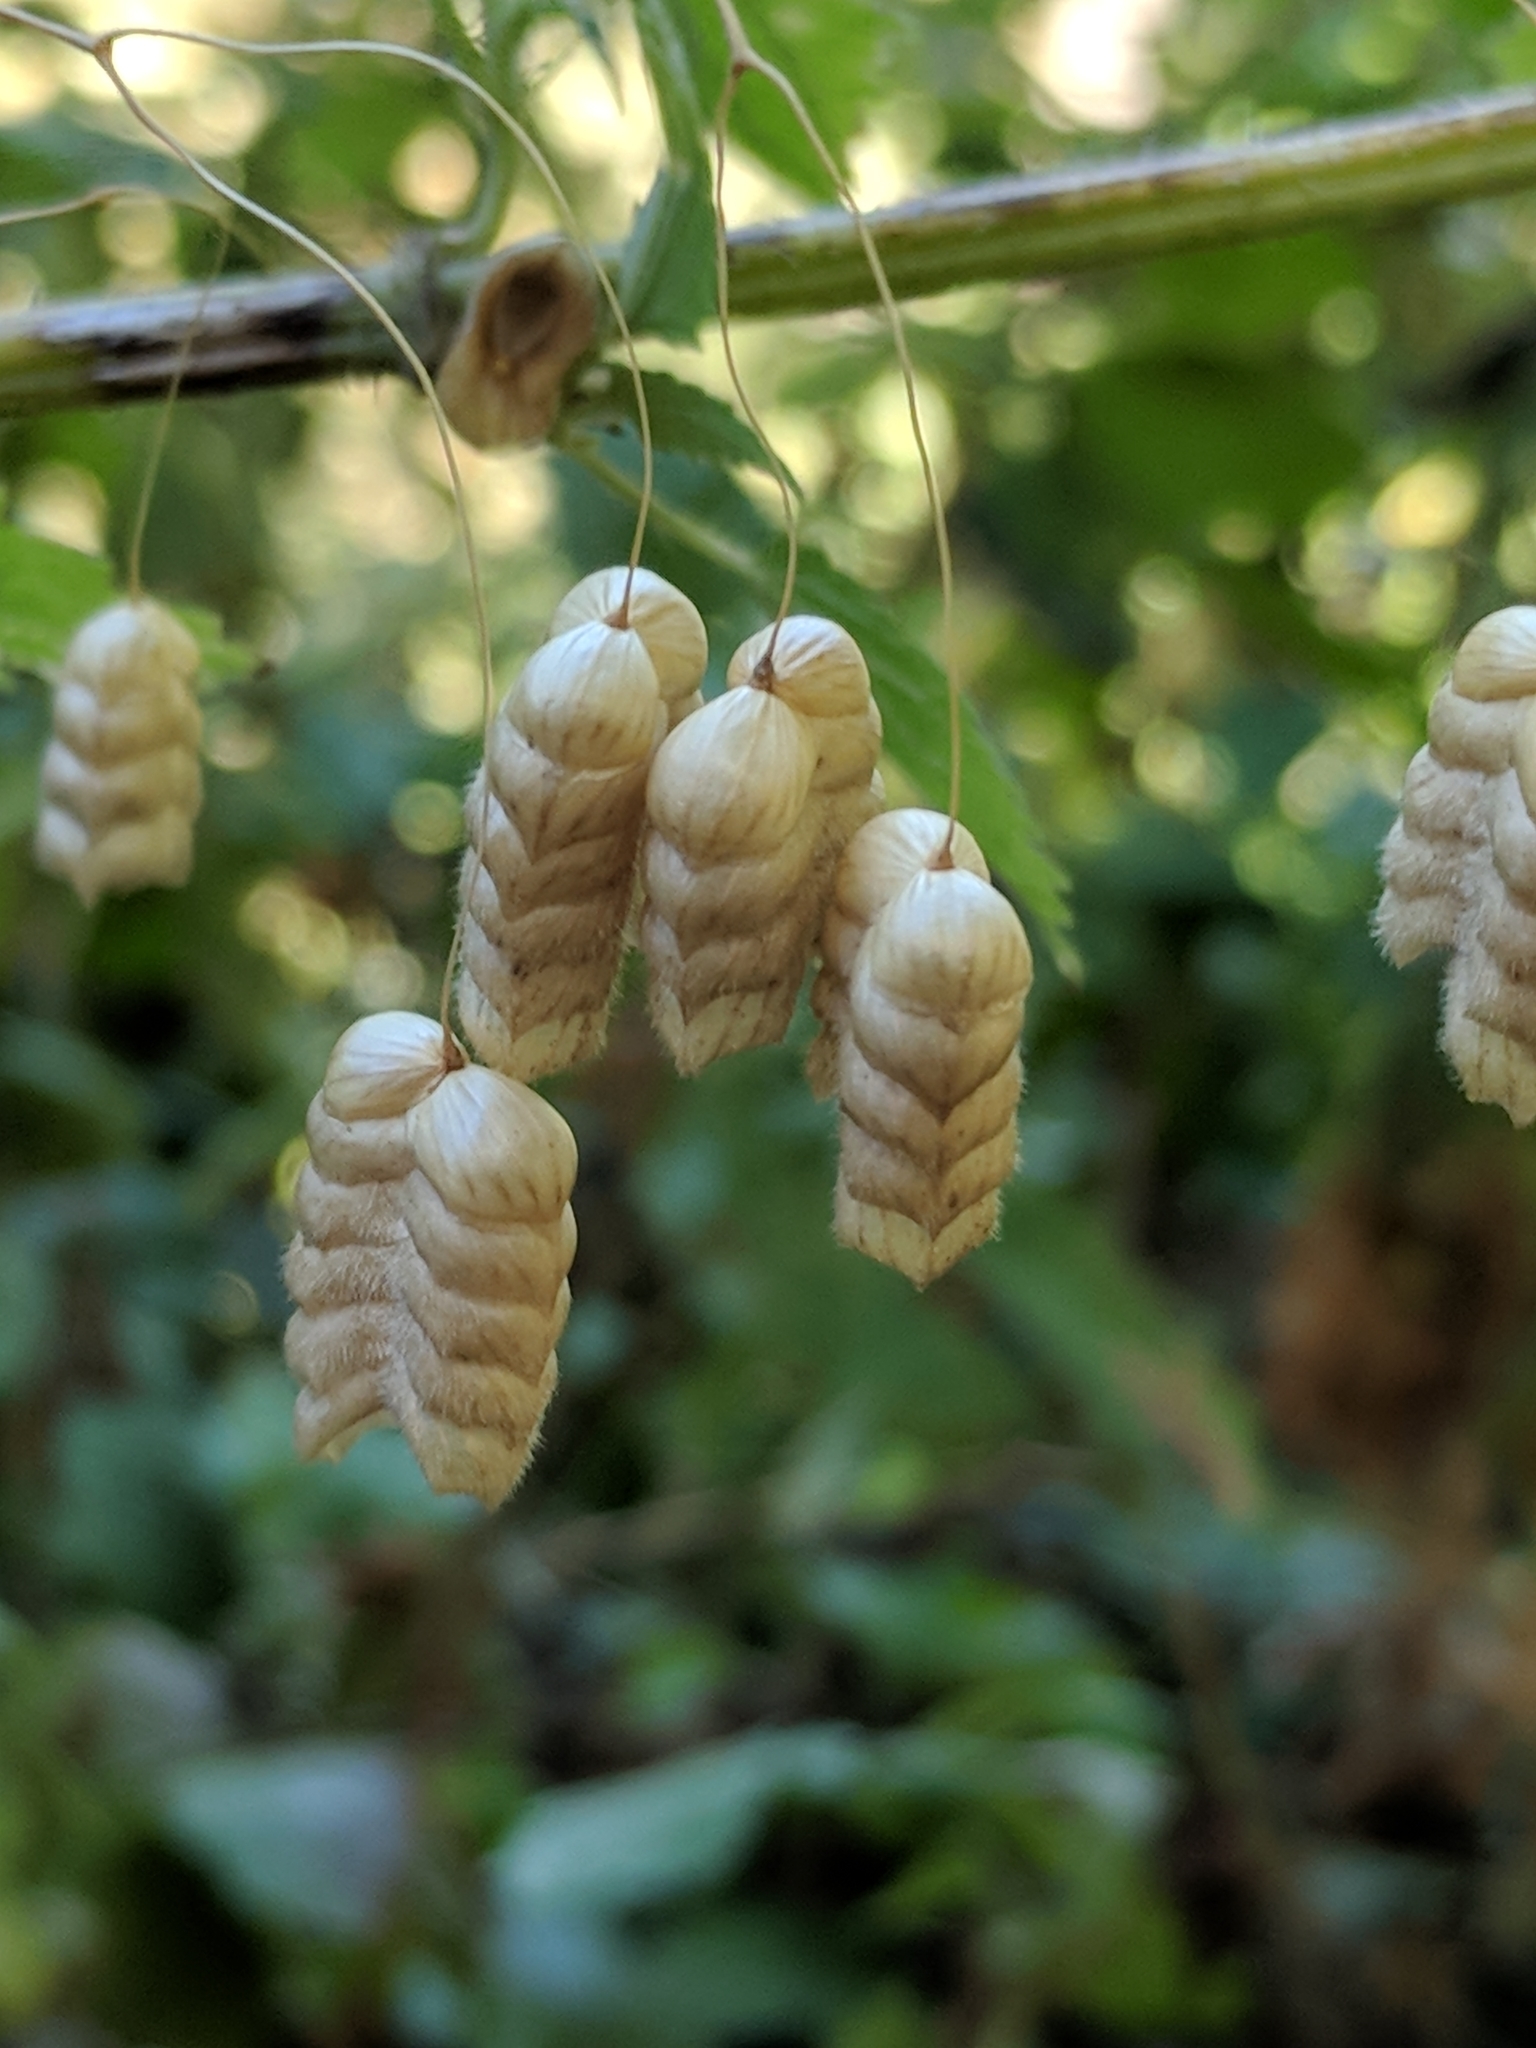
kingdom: Plantae
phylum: Tracheophyta
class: Liliopsida
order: Poales
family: Poaceae
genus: Briza
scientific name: Briza maxima
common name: Big quakinggrass
